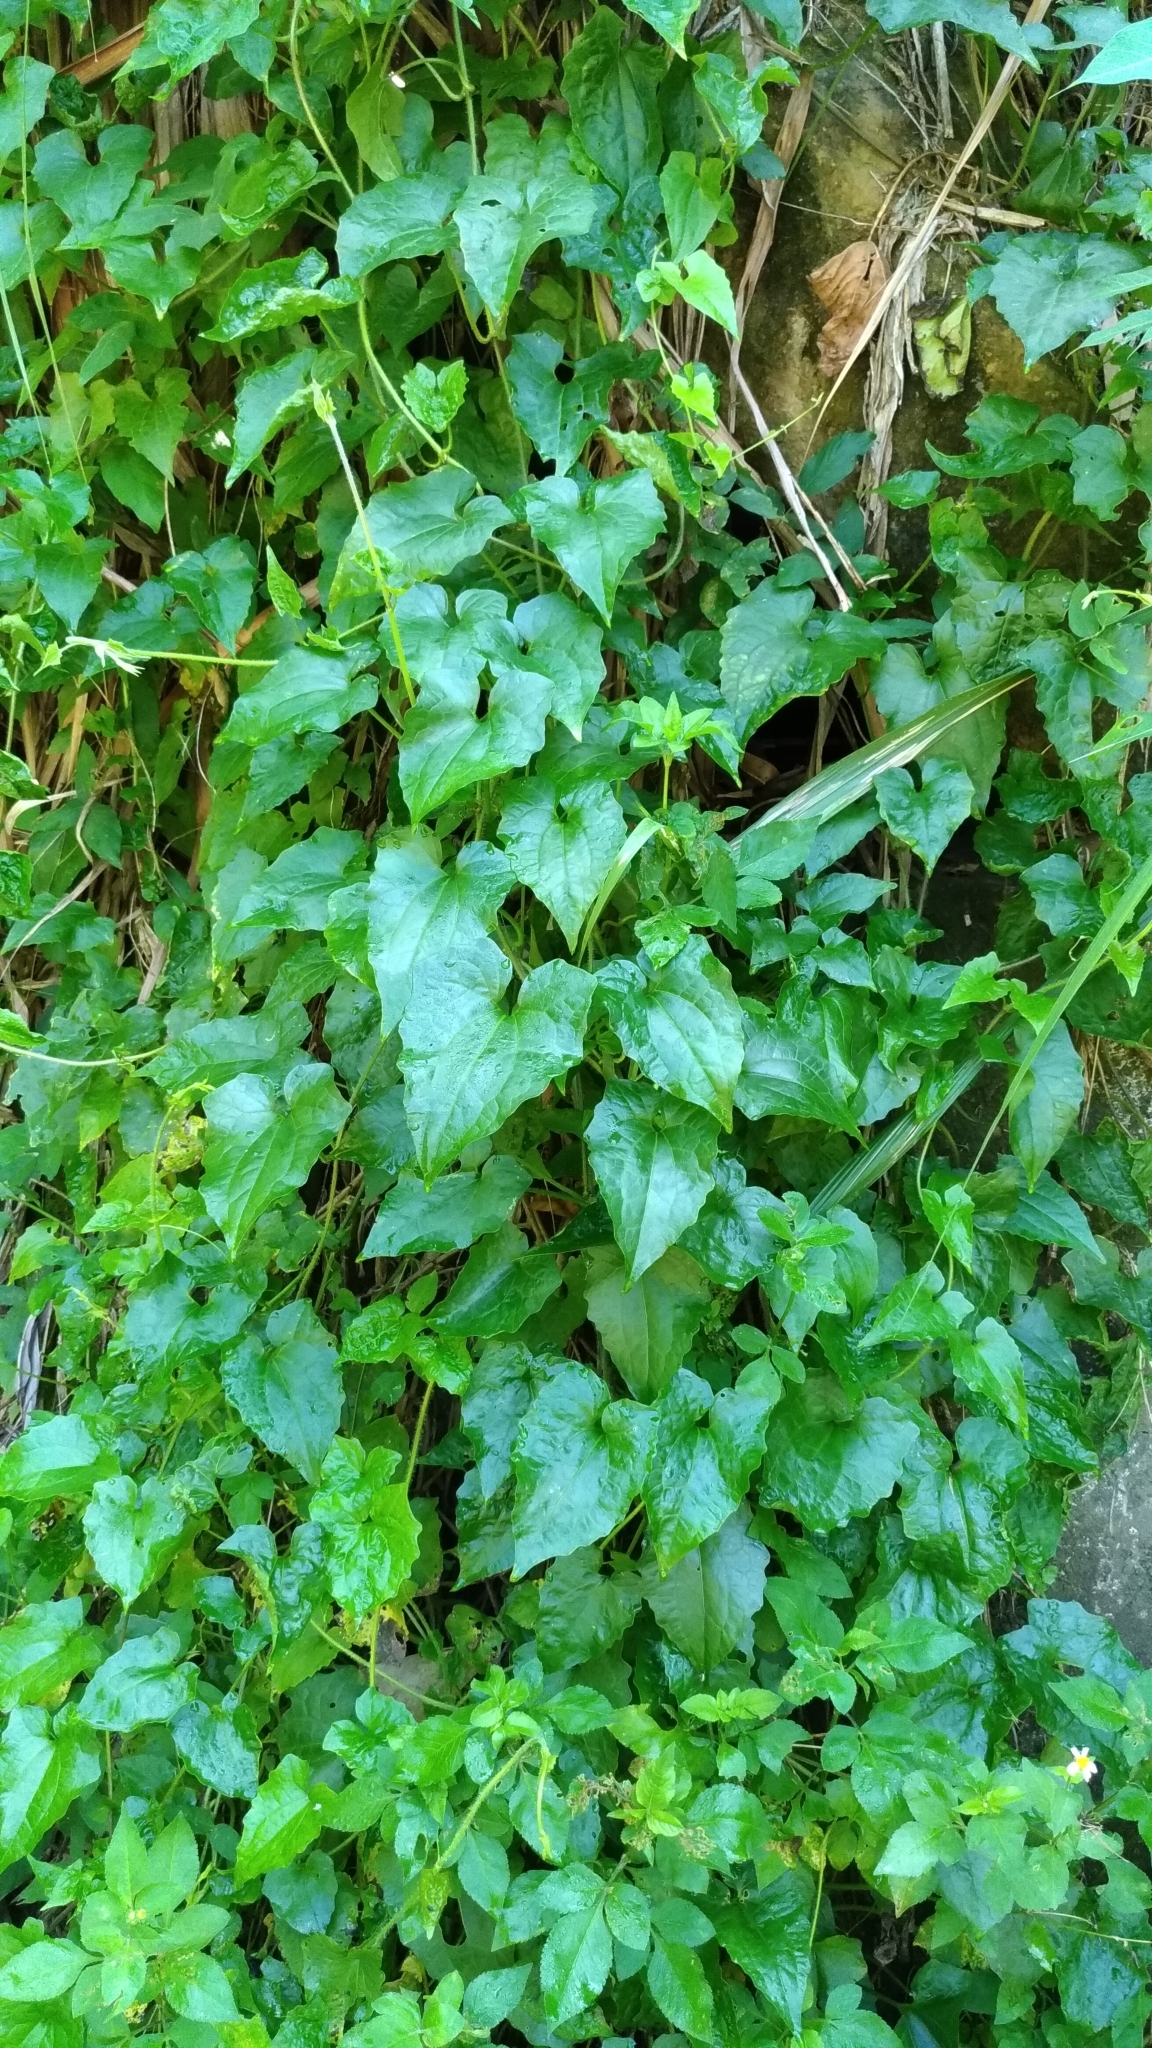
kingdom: Plantae
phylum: Tracheophyta
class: Magnoliopsida
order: Asterales
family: Asteraceae
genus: Mikania
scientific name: Mikania micrantha
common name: Mile-a-minute
